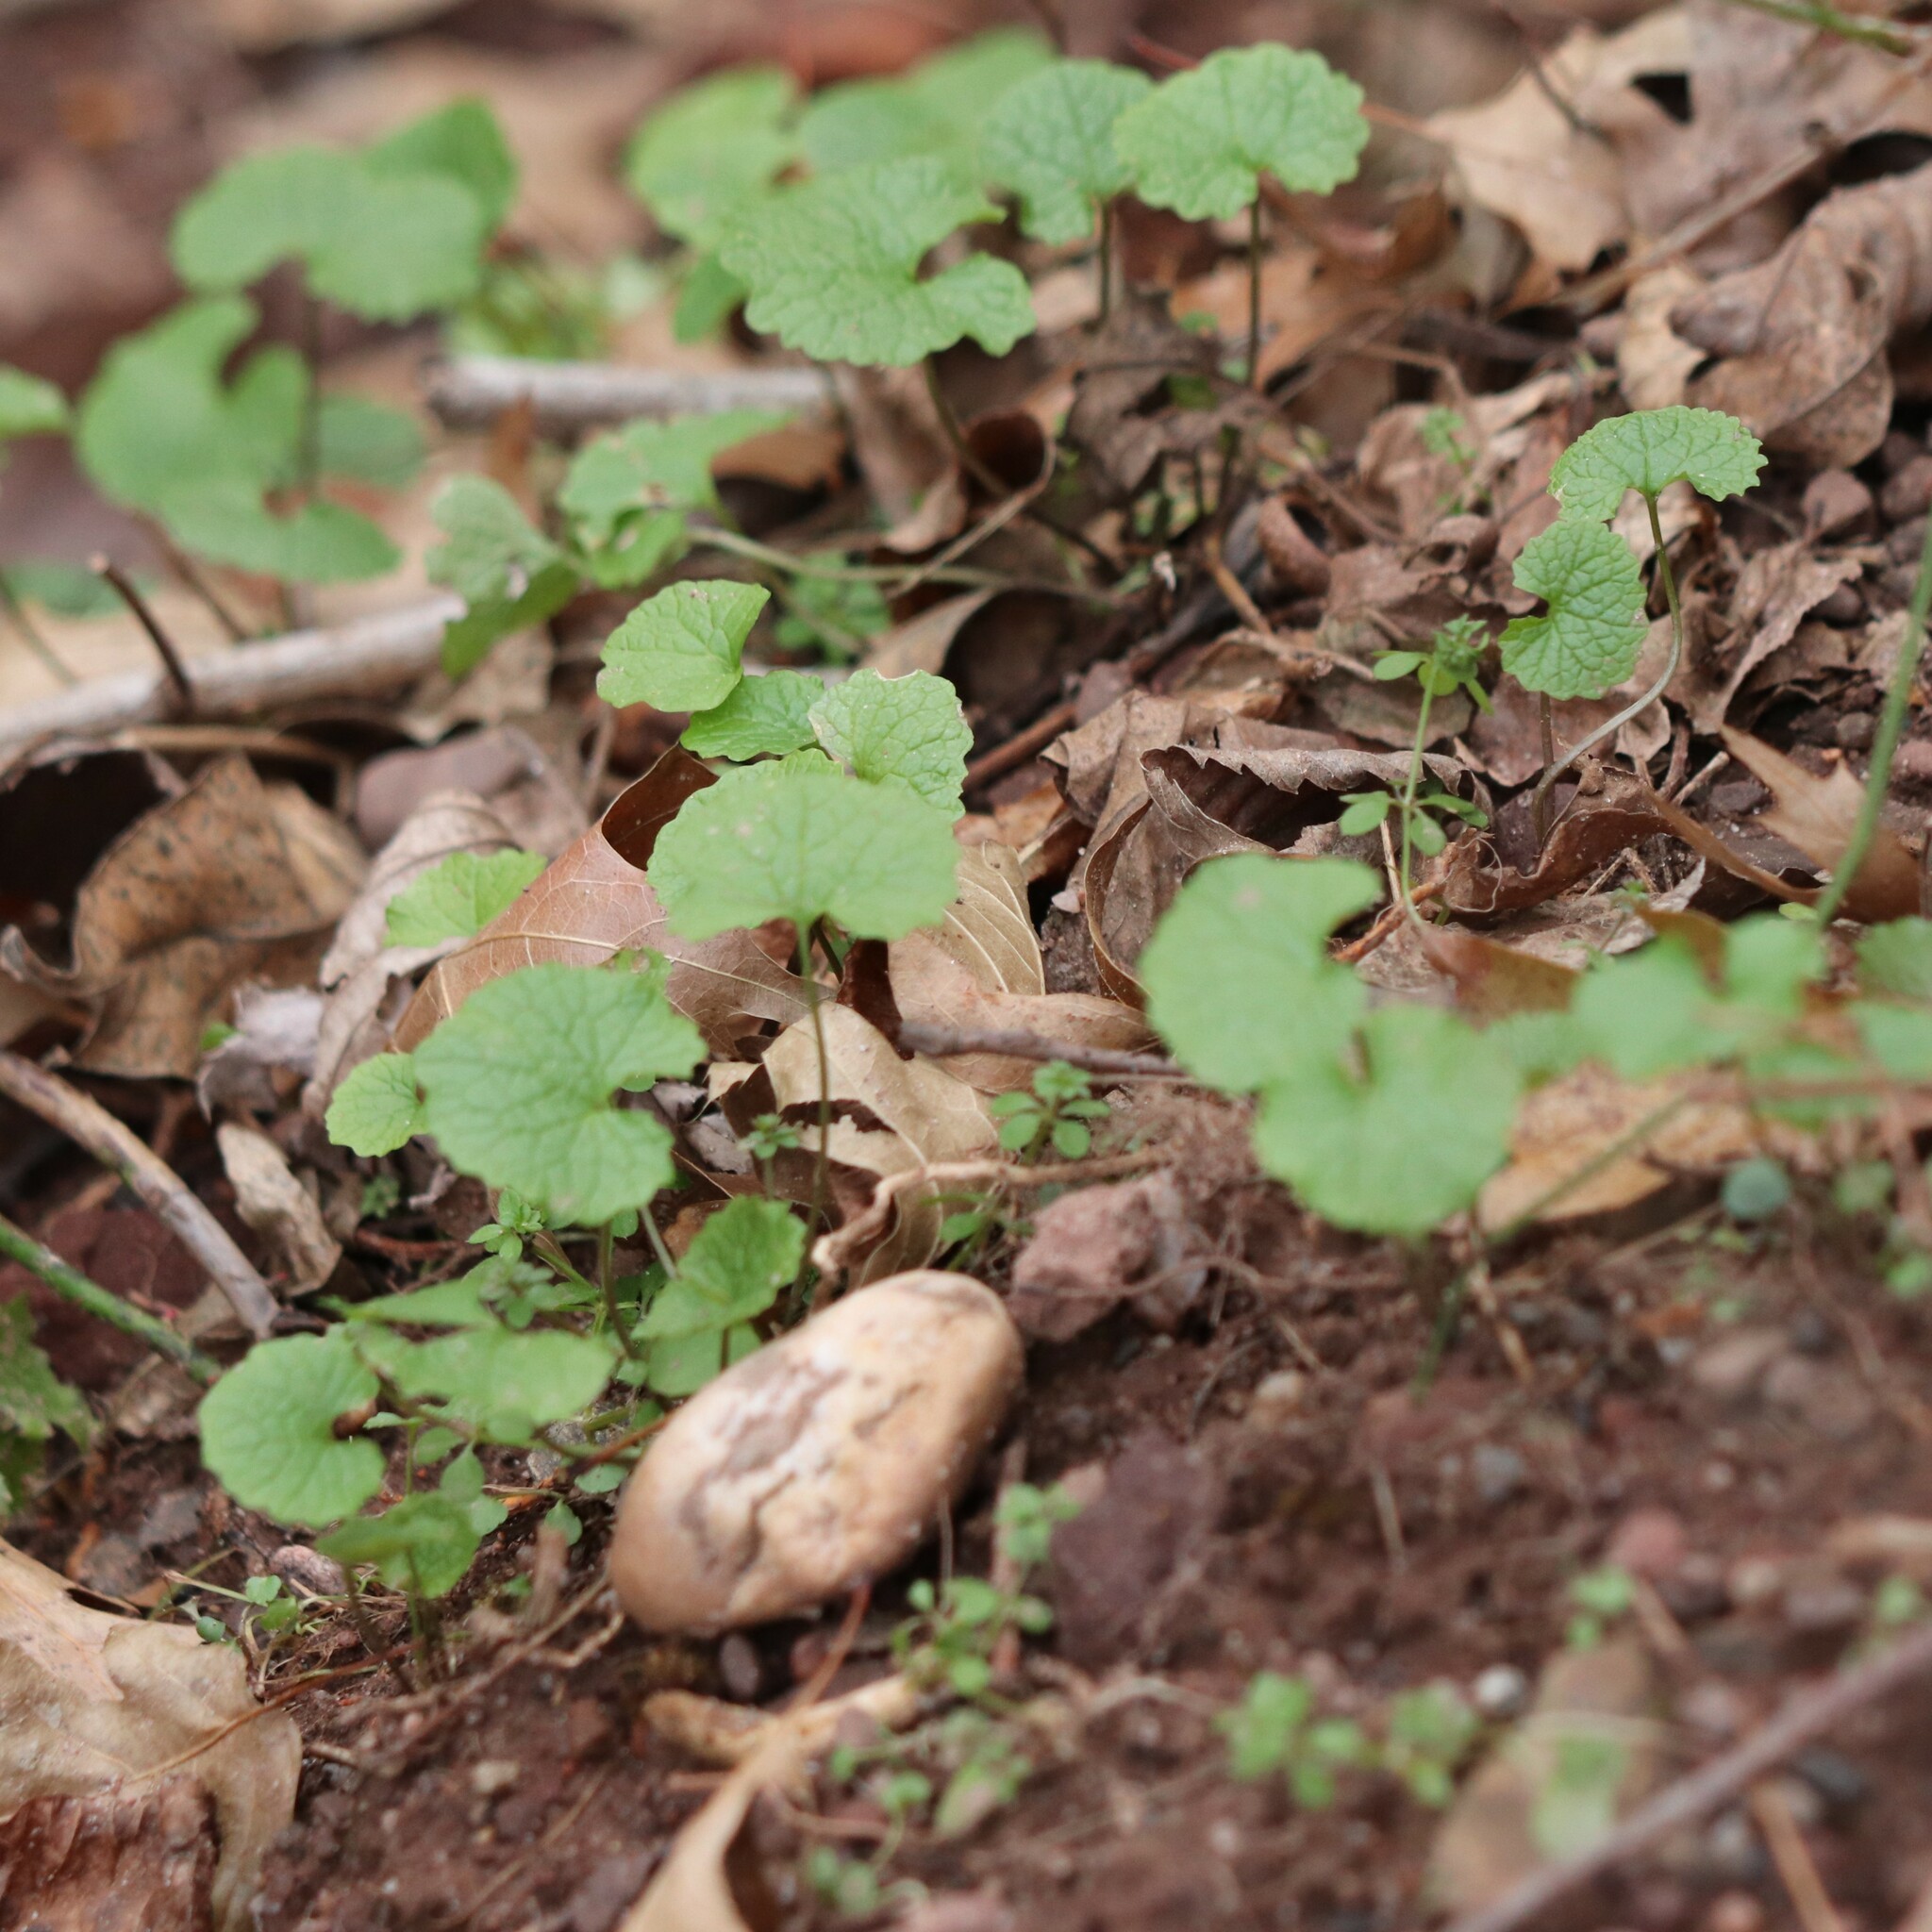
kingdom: Plantae
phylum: Tracheophyta
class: Magnoliopsida
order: Brassicales
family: Brassicaceae
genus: Alliaria
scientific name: Alliaria petiolata
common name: Garlic mustard
